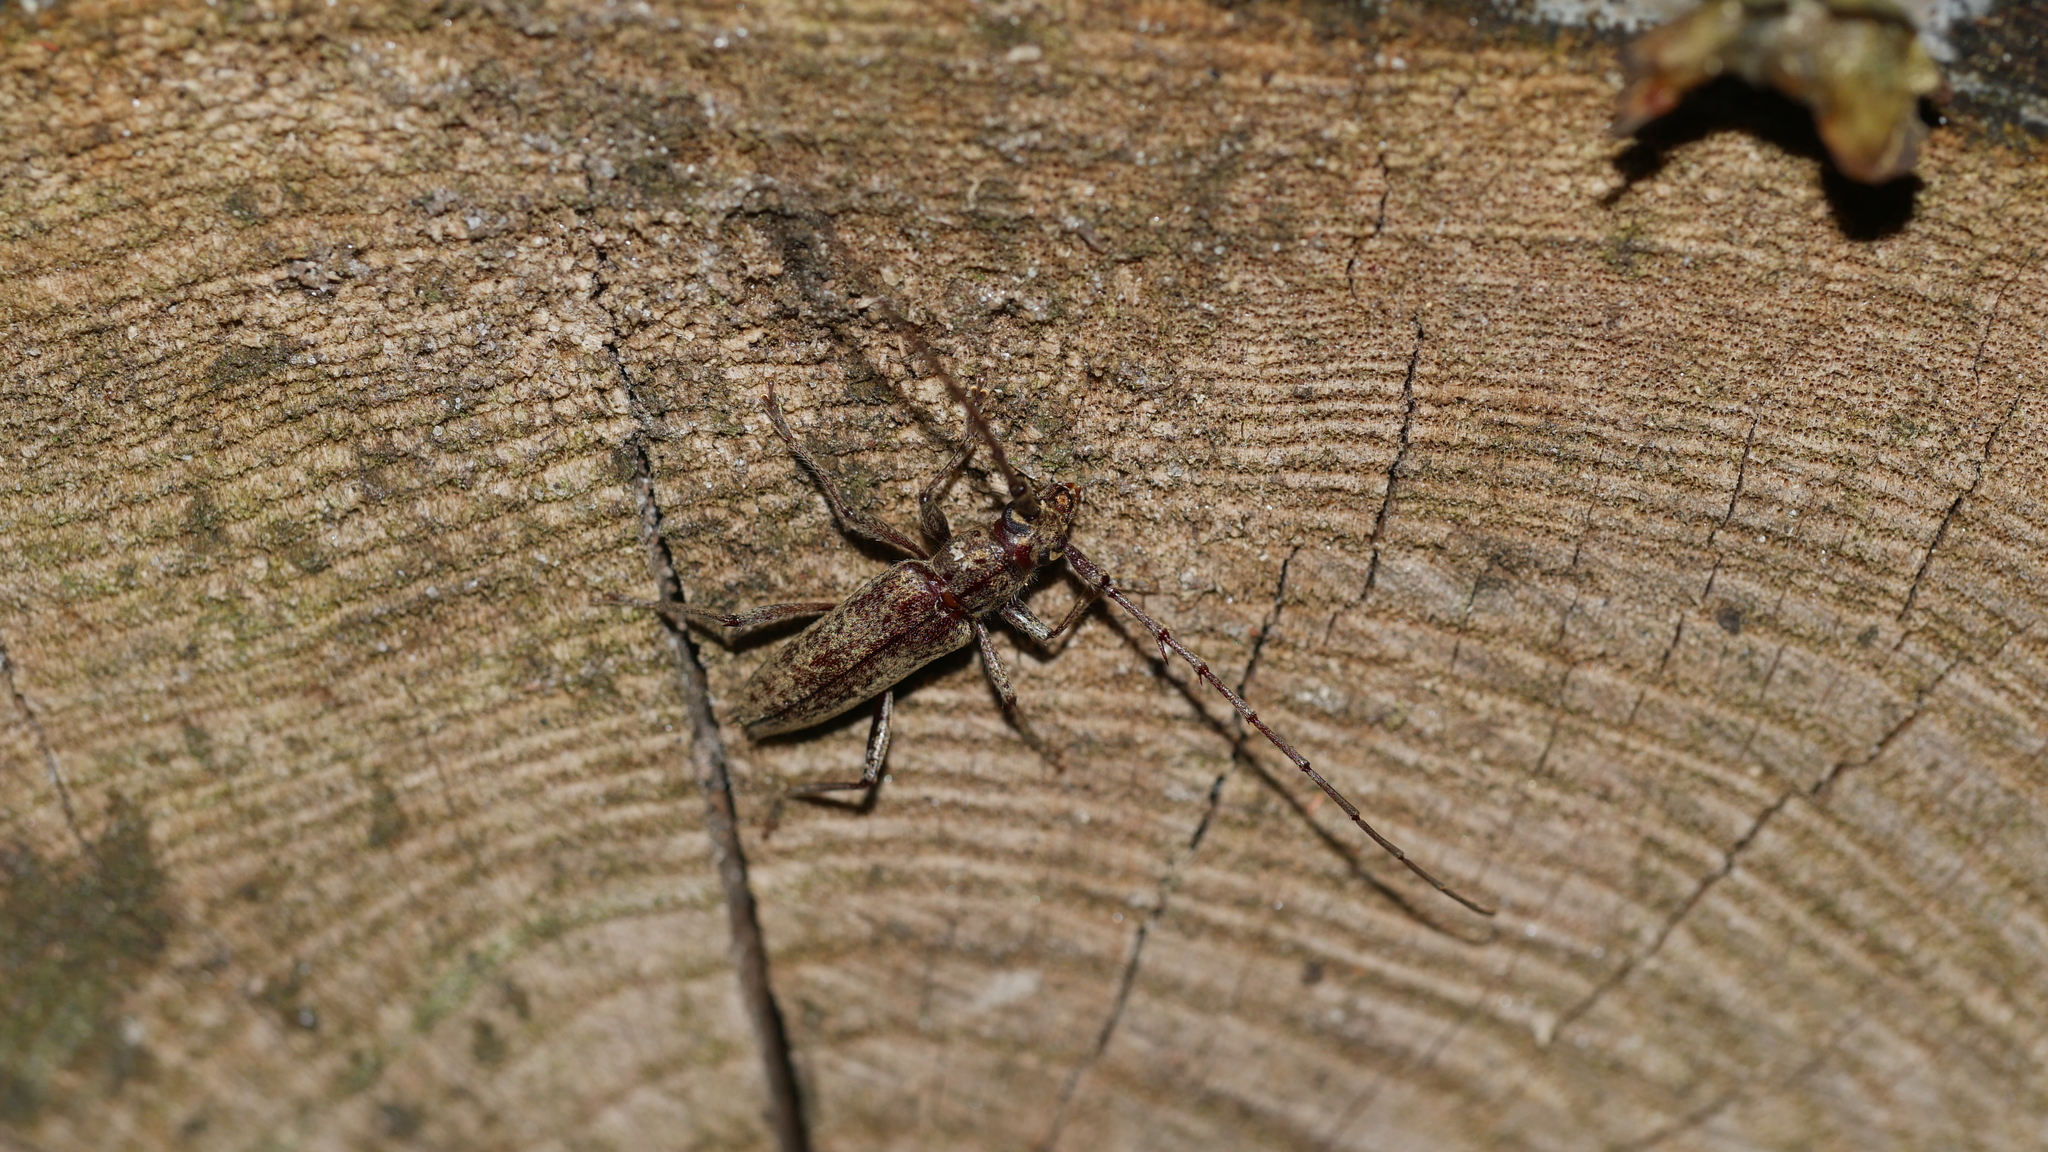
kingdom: Animalia
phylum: Arthropoda
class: Insecta
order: Coleoptera
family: Cerambycidae
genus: Elaphidion
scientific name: Elaphidion mucronatum
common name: Spined oak borer
